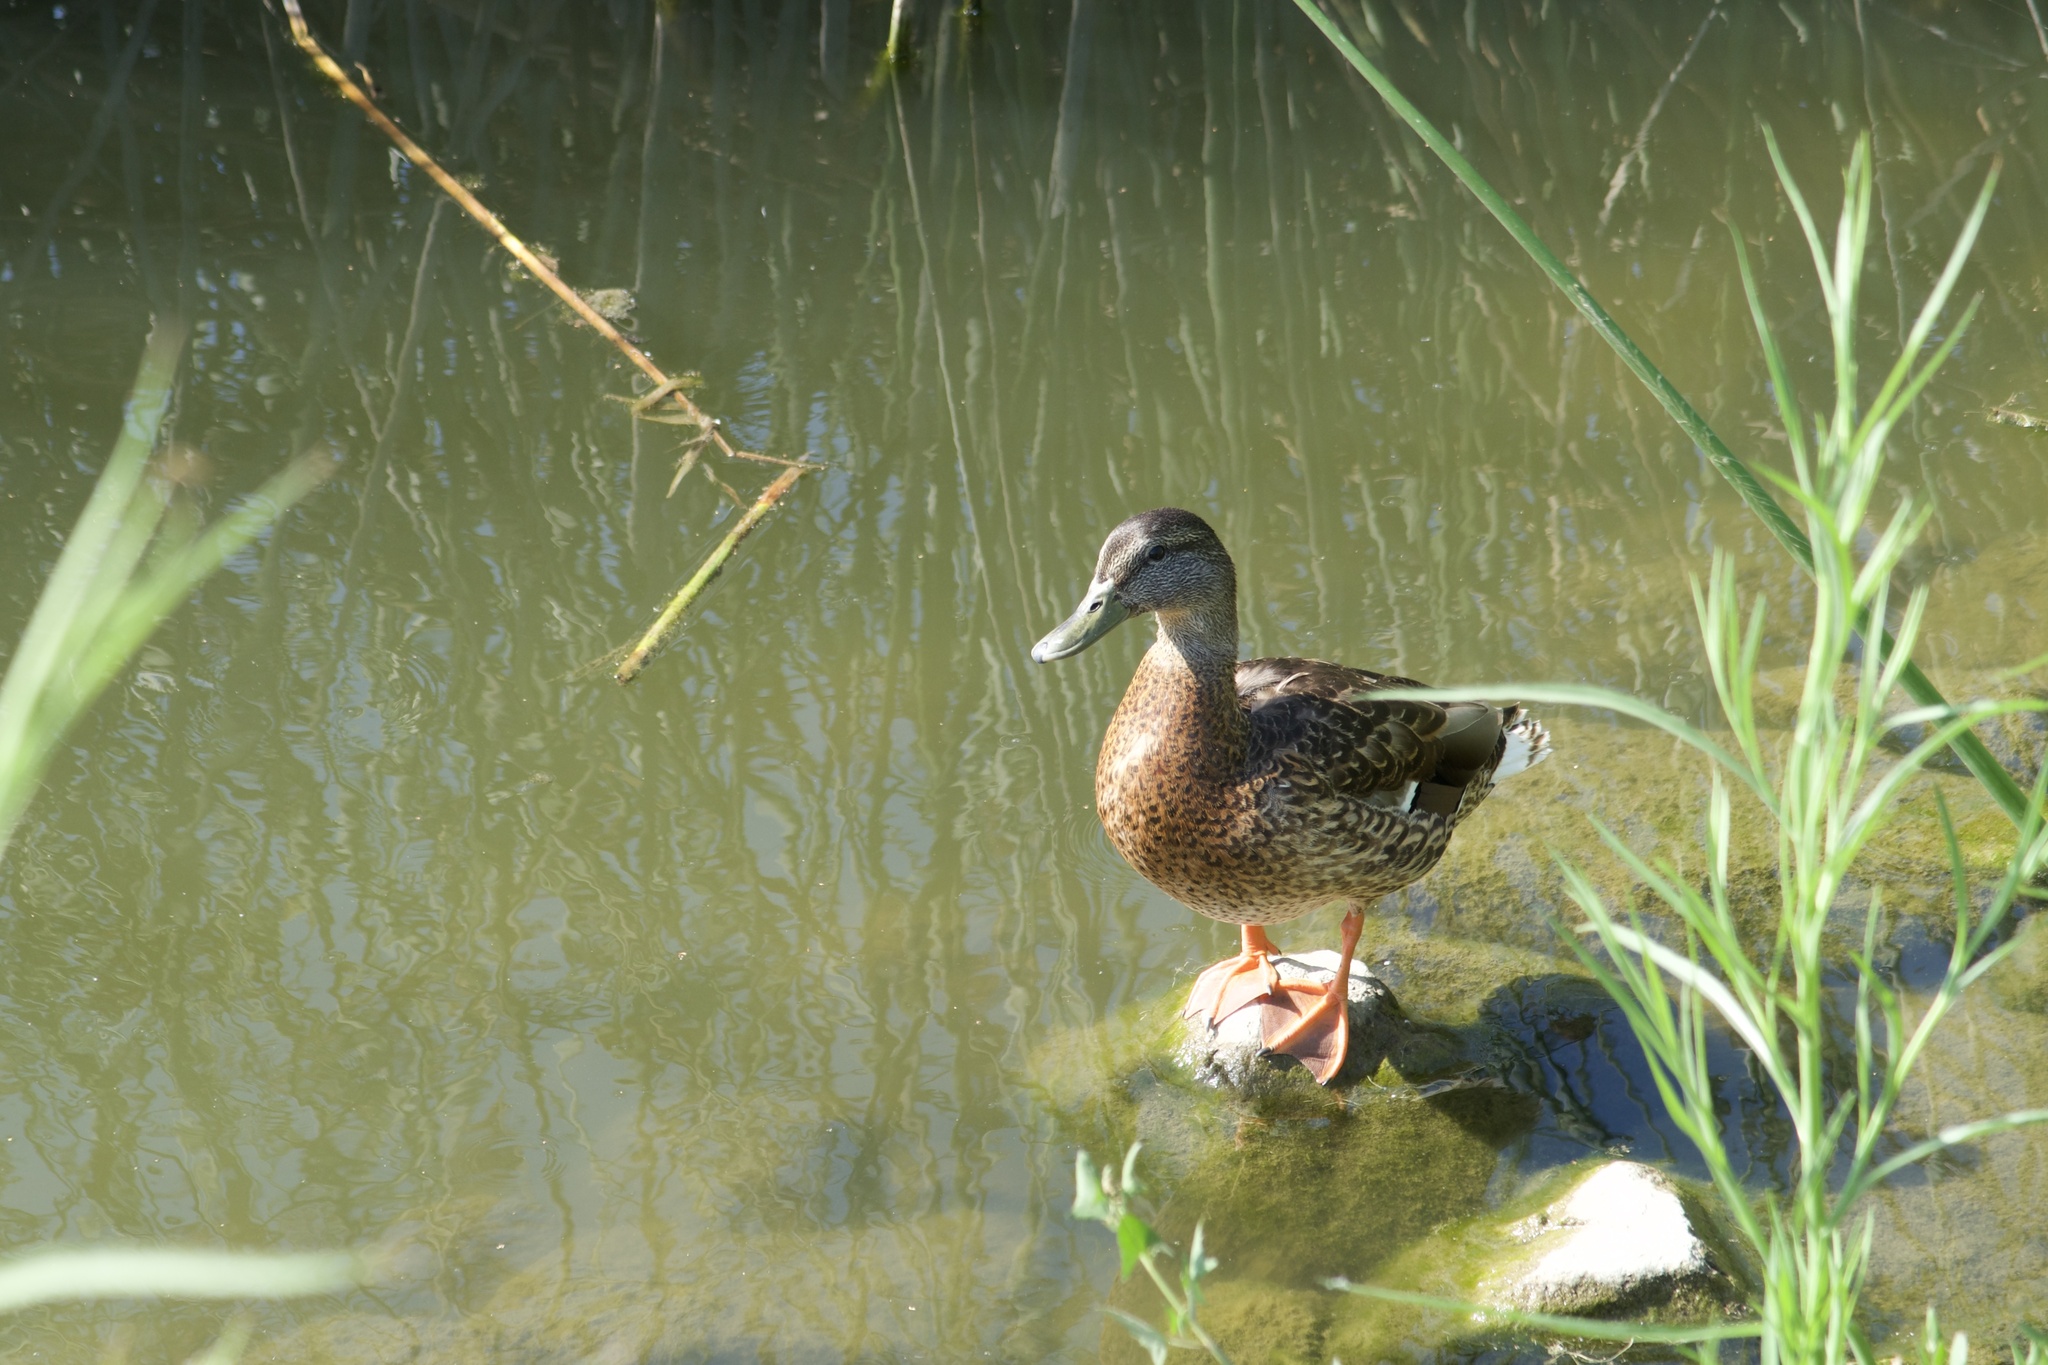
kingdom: Animalia
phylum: Chordata
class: Aves
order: Anseriformes
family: Anatidae
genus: Anas
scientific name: Anas platyrhynchos
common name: Mallard
